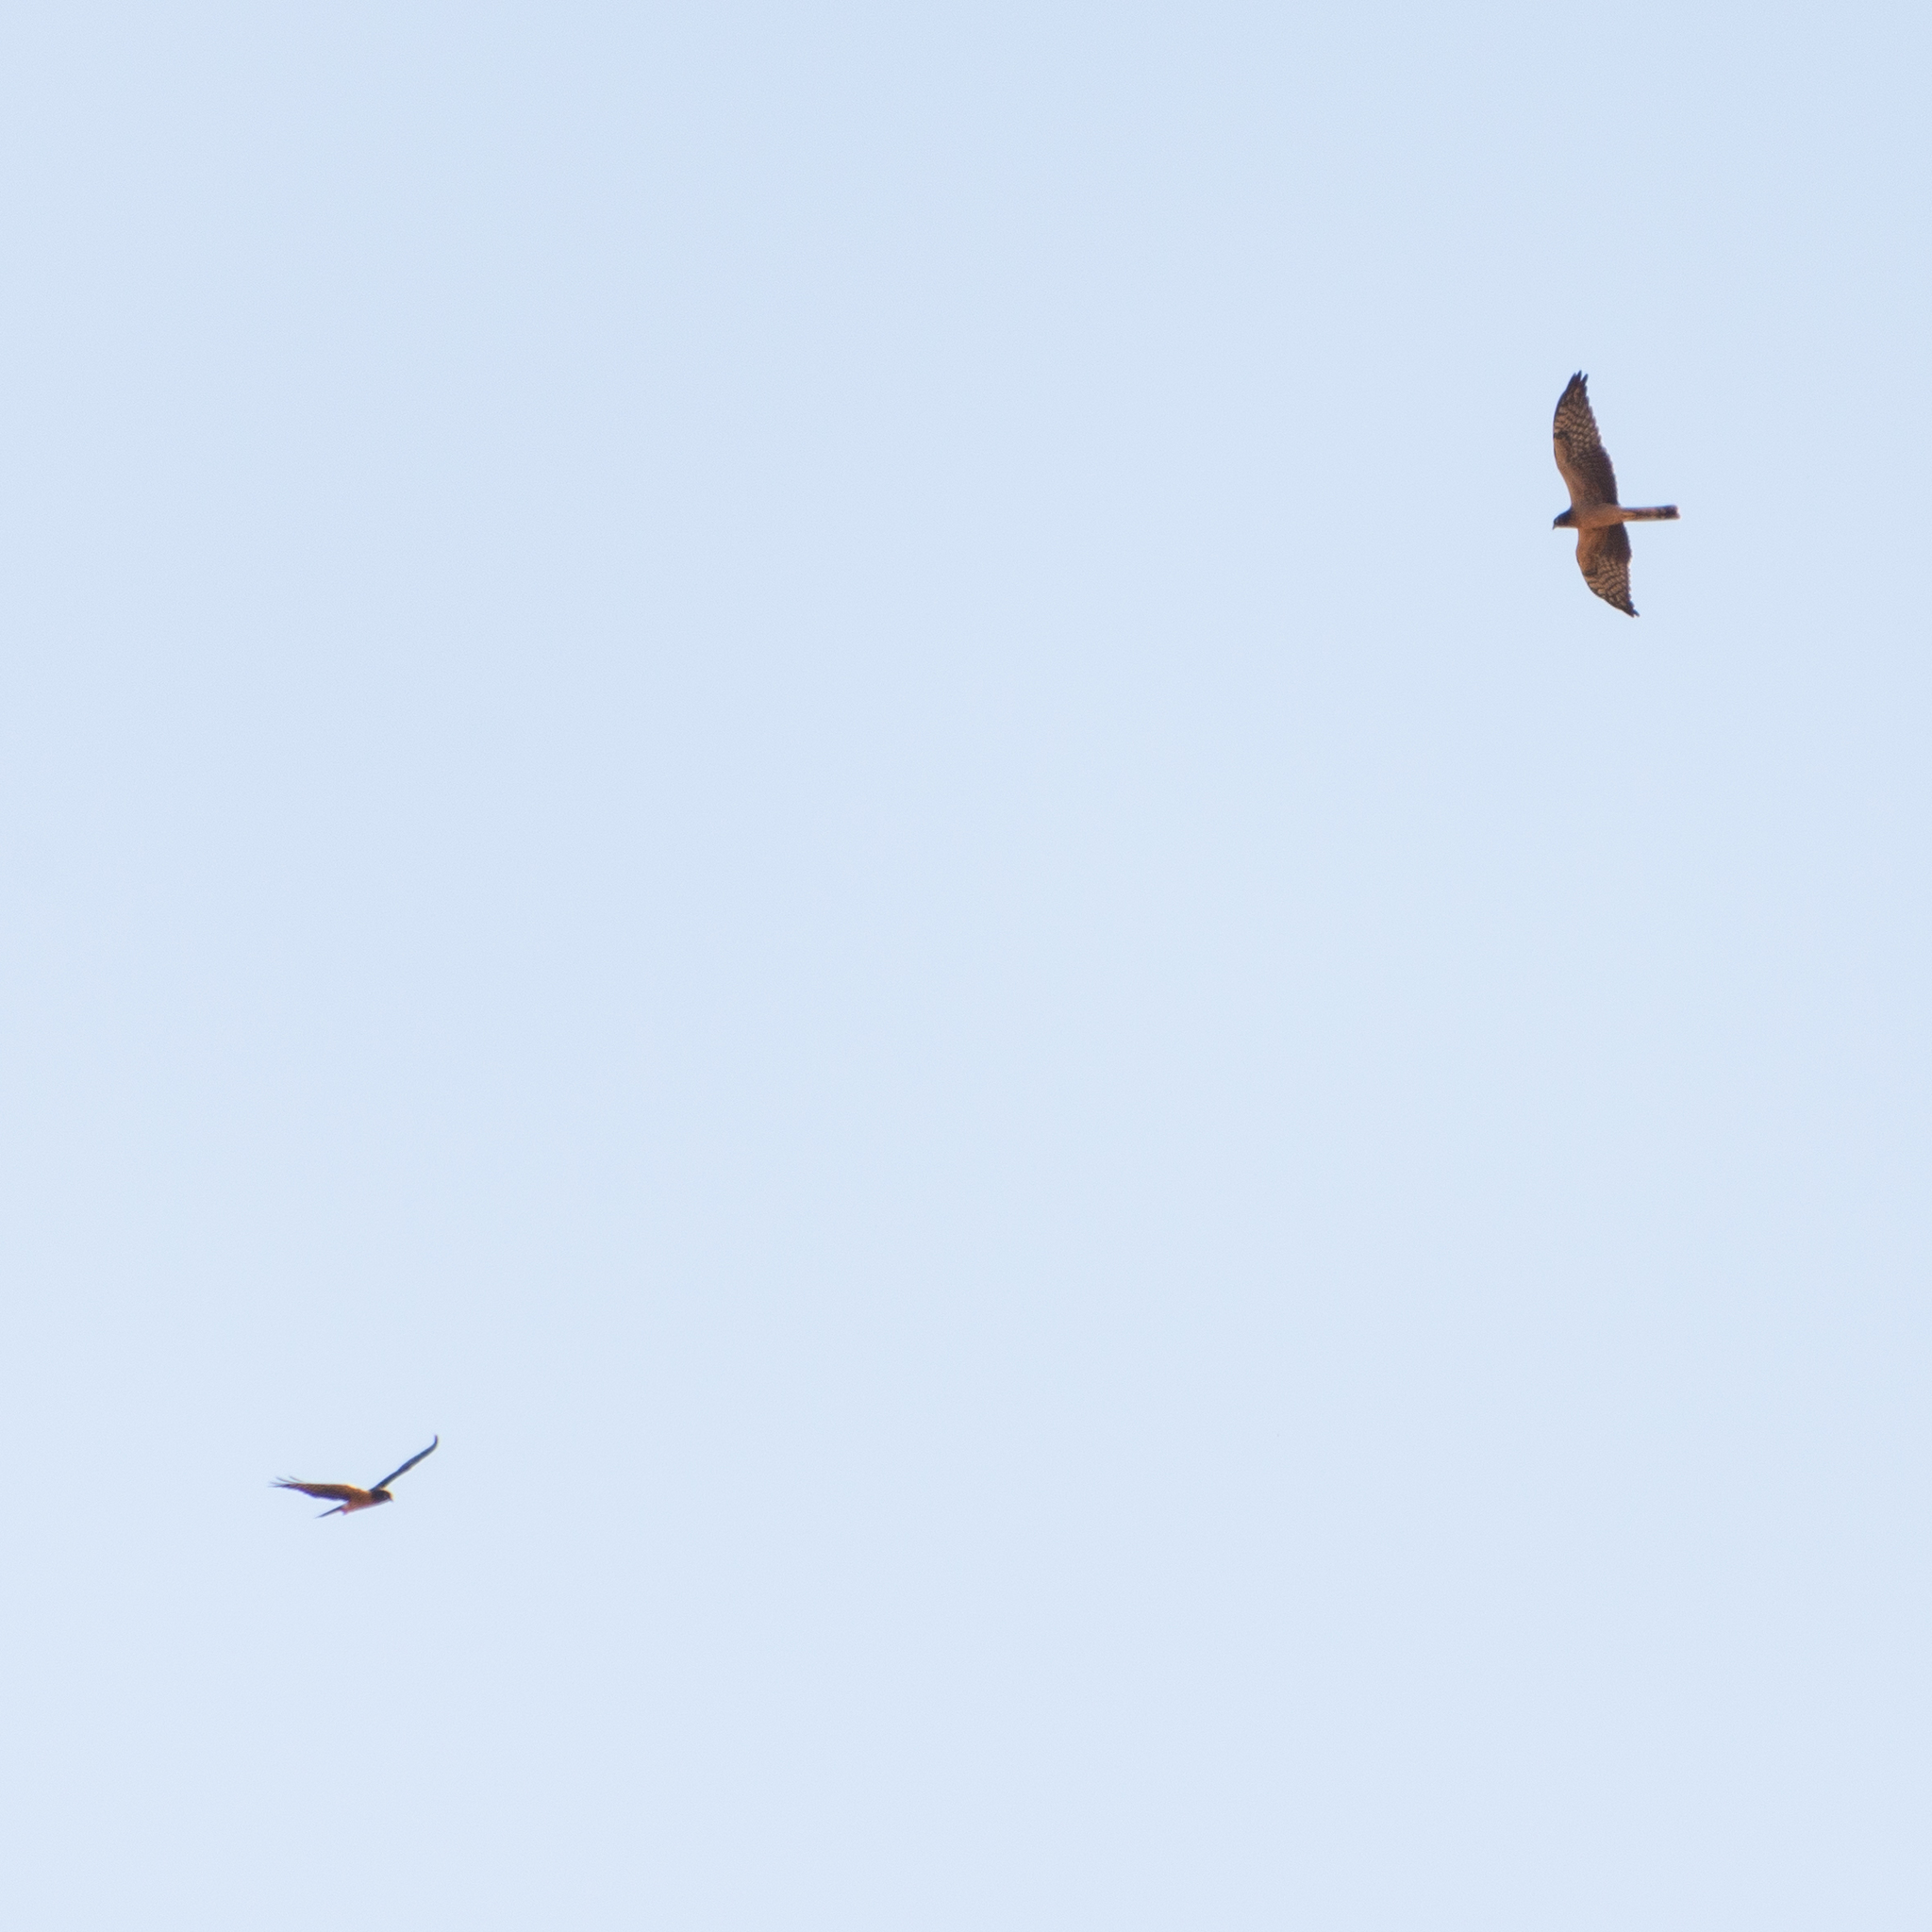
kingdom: Animalia
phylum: Chordata
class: Aves
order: Accipitriformes
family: Accipitridae
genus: Circus
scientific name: Circus pygargus
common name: Montagu's harrier
